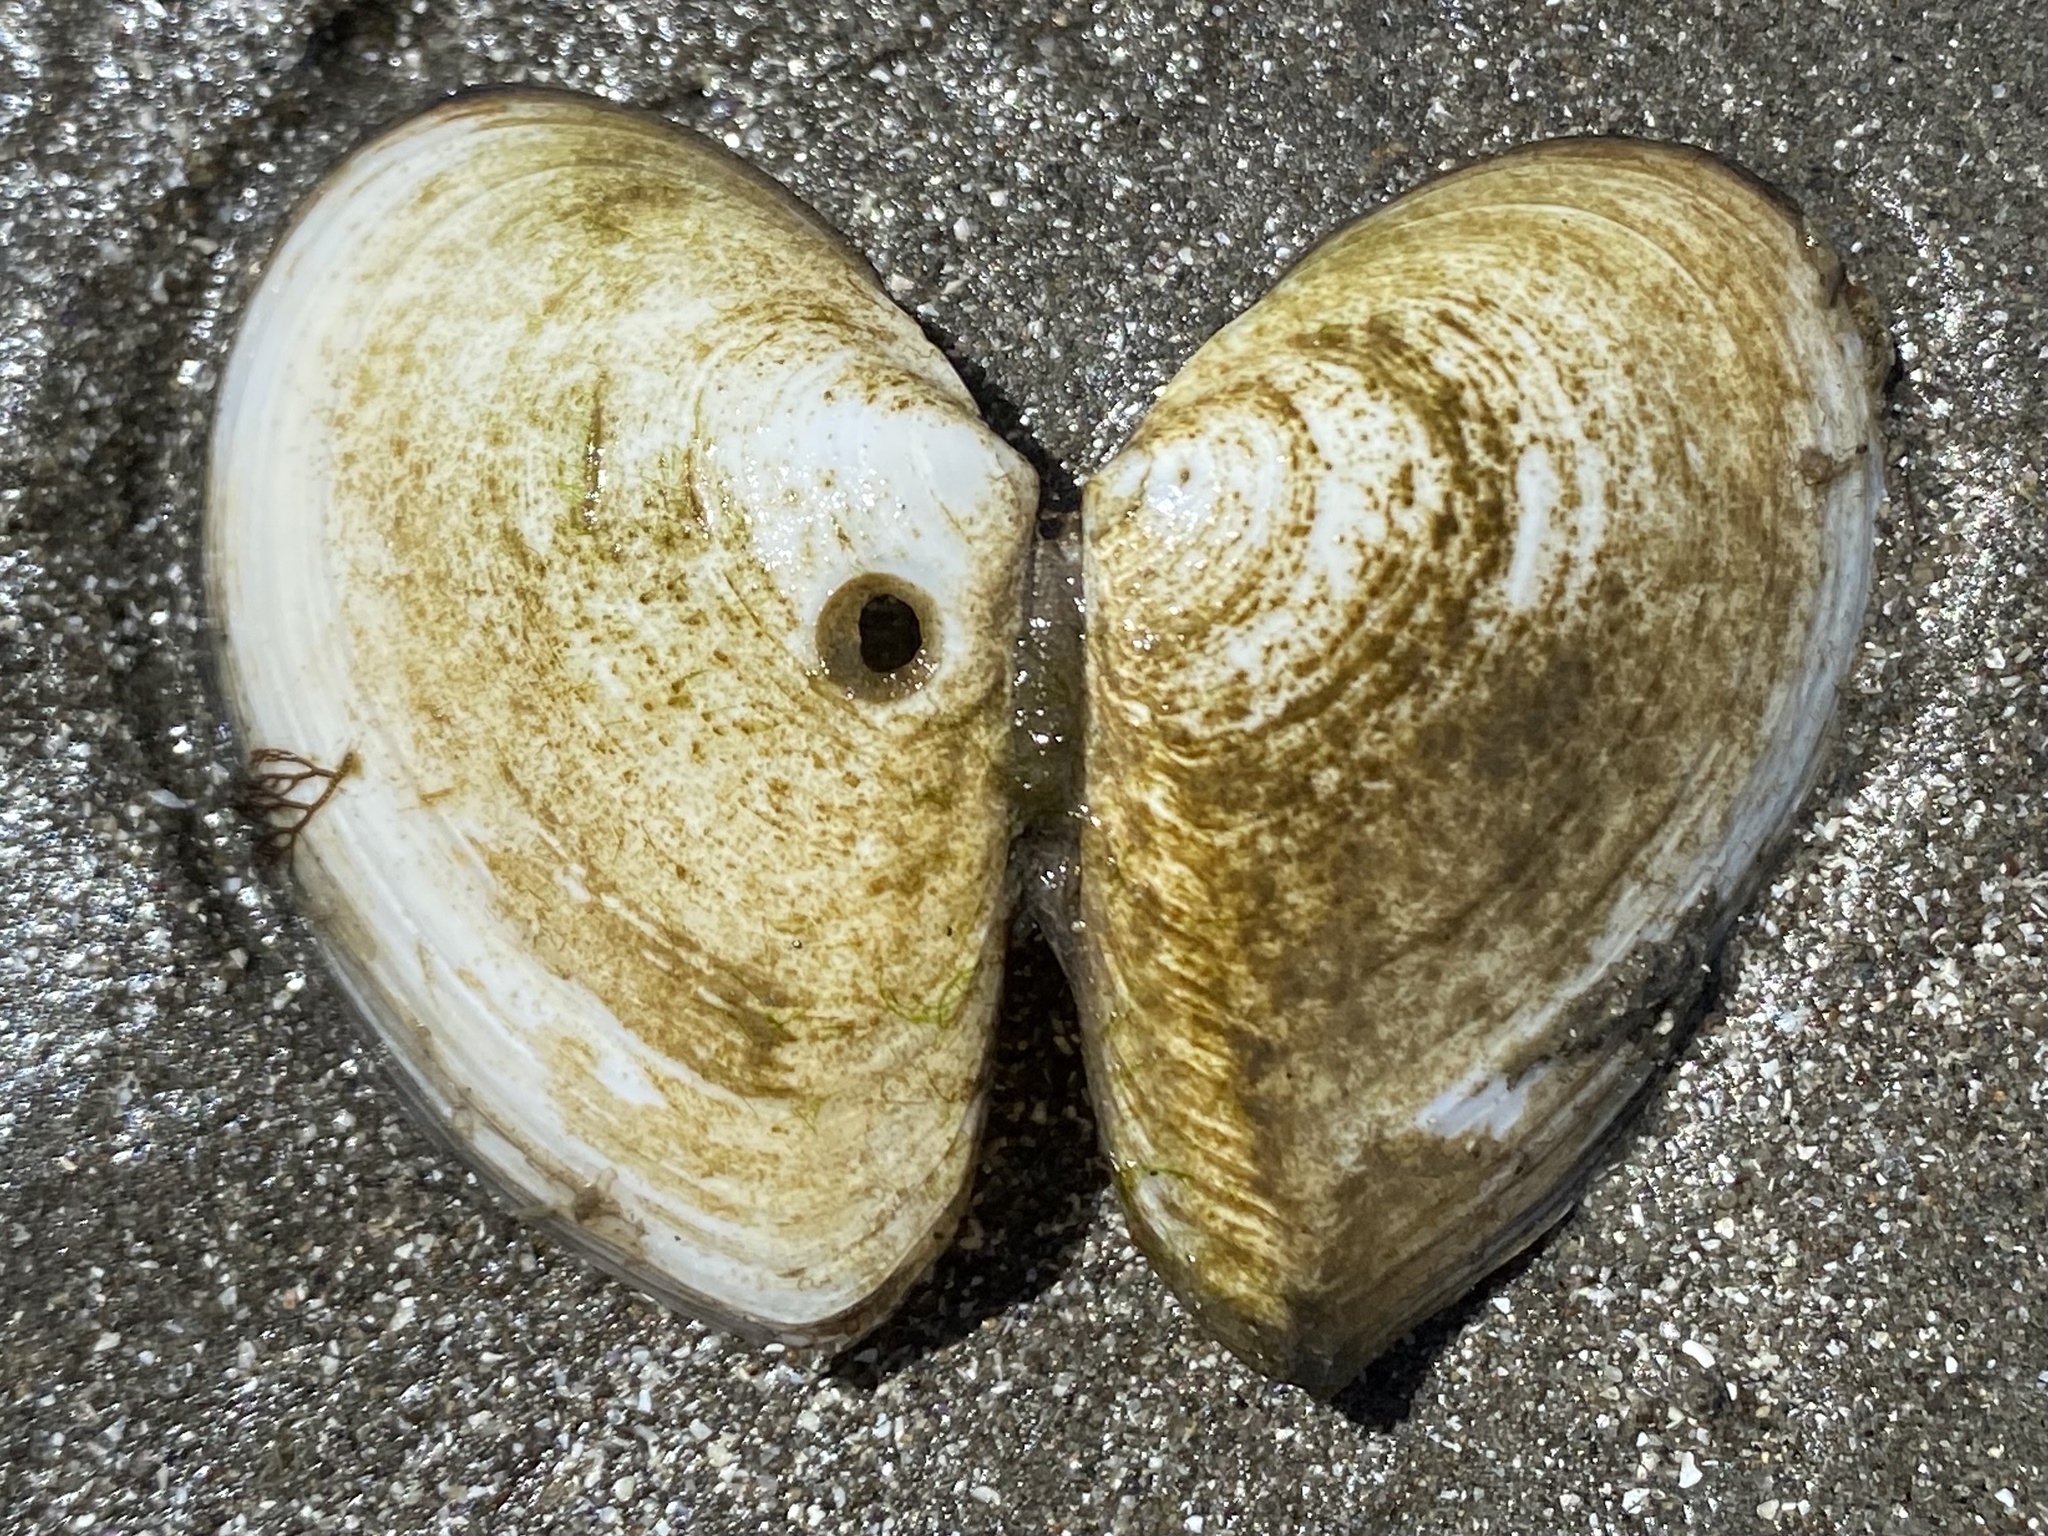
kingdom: Animalia
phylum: Mollusca
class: Bivalvia
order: Cardiida
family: Tellinidae
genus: Macoma
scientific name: Macoma nasuta
